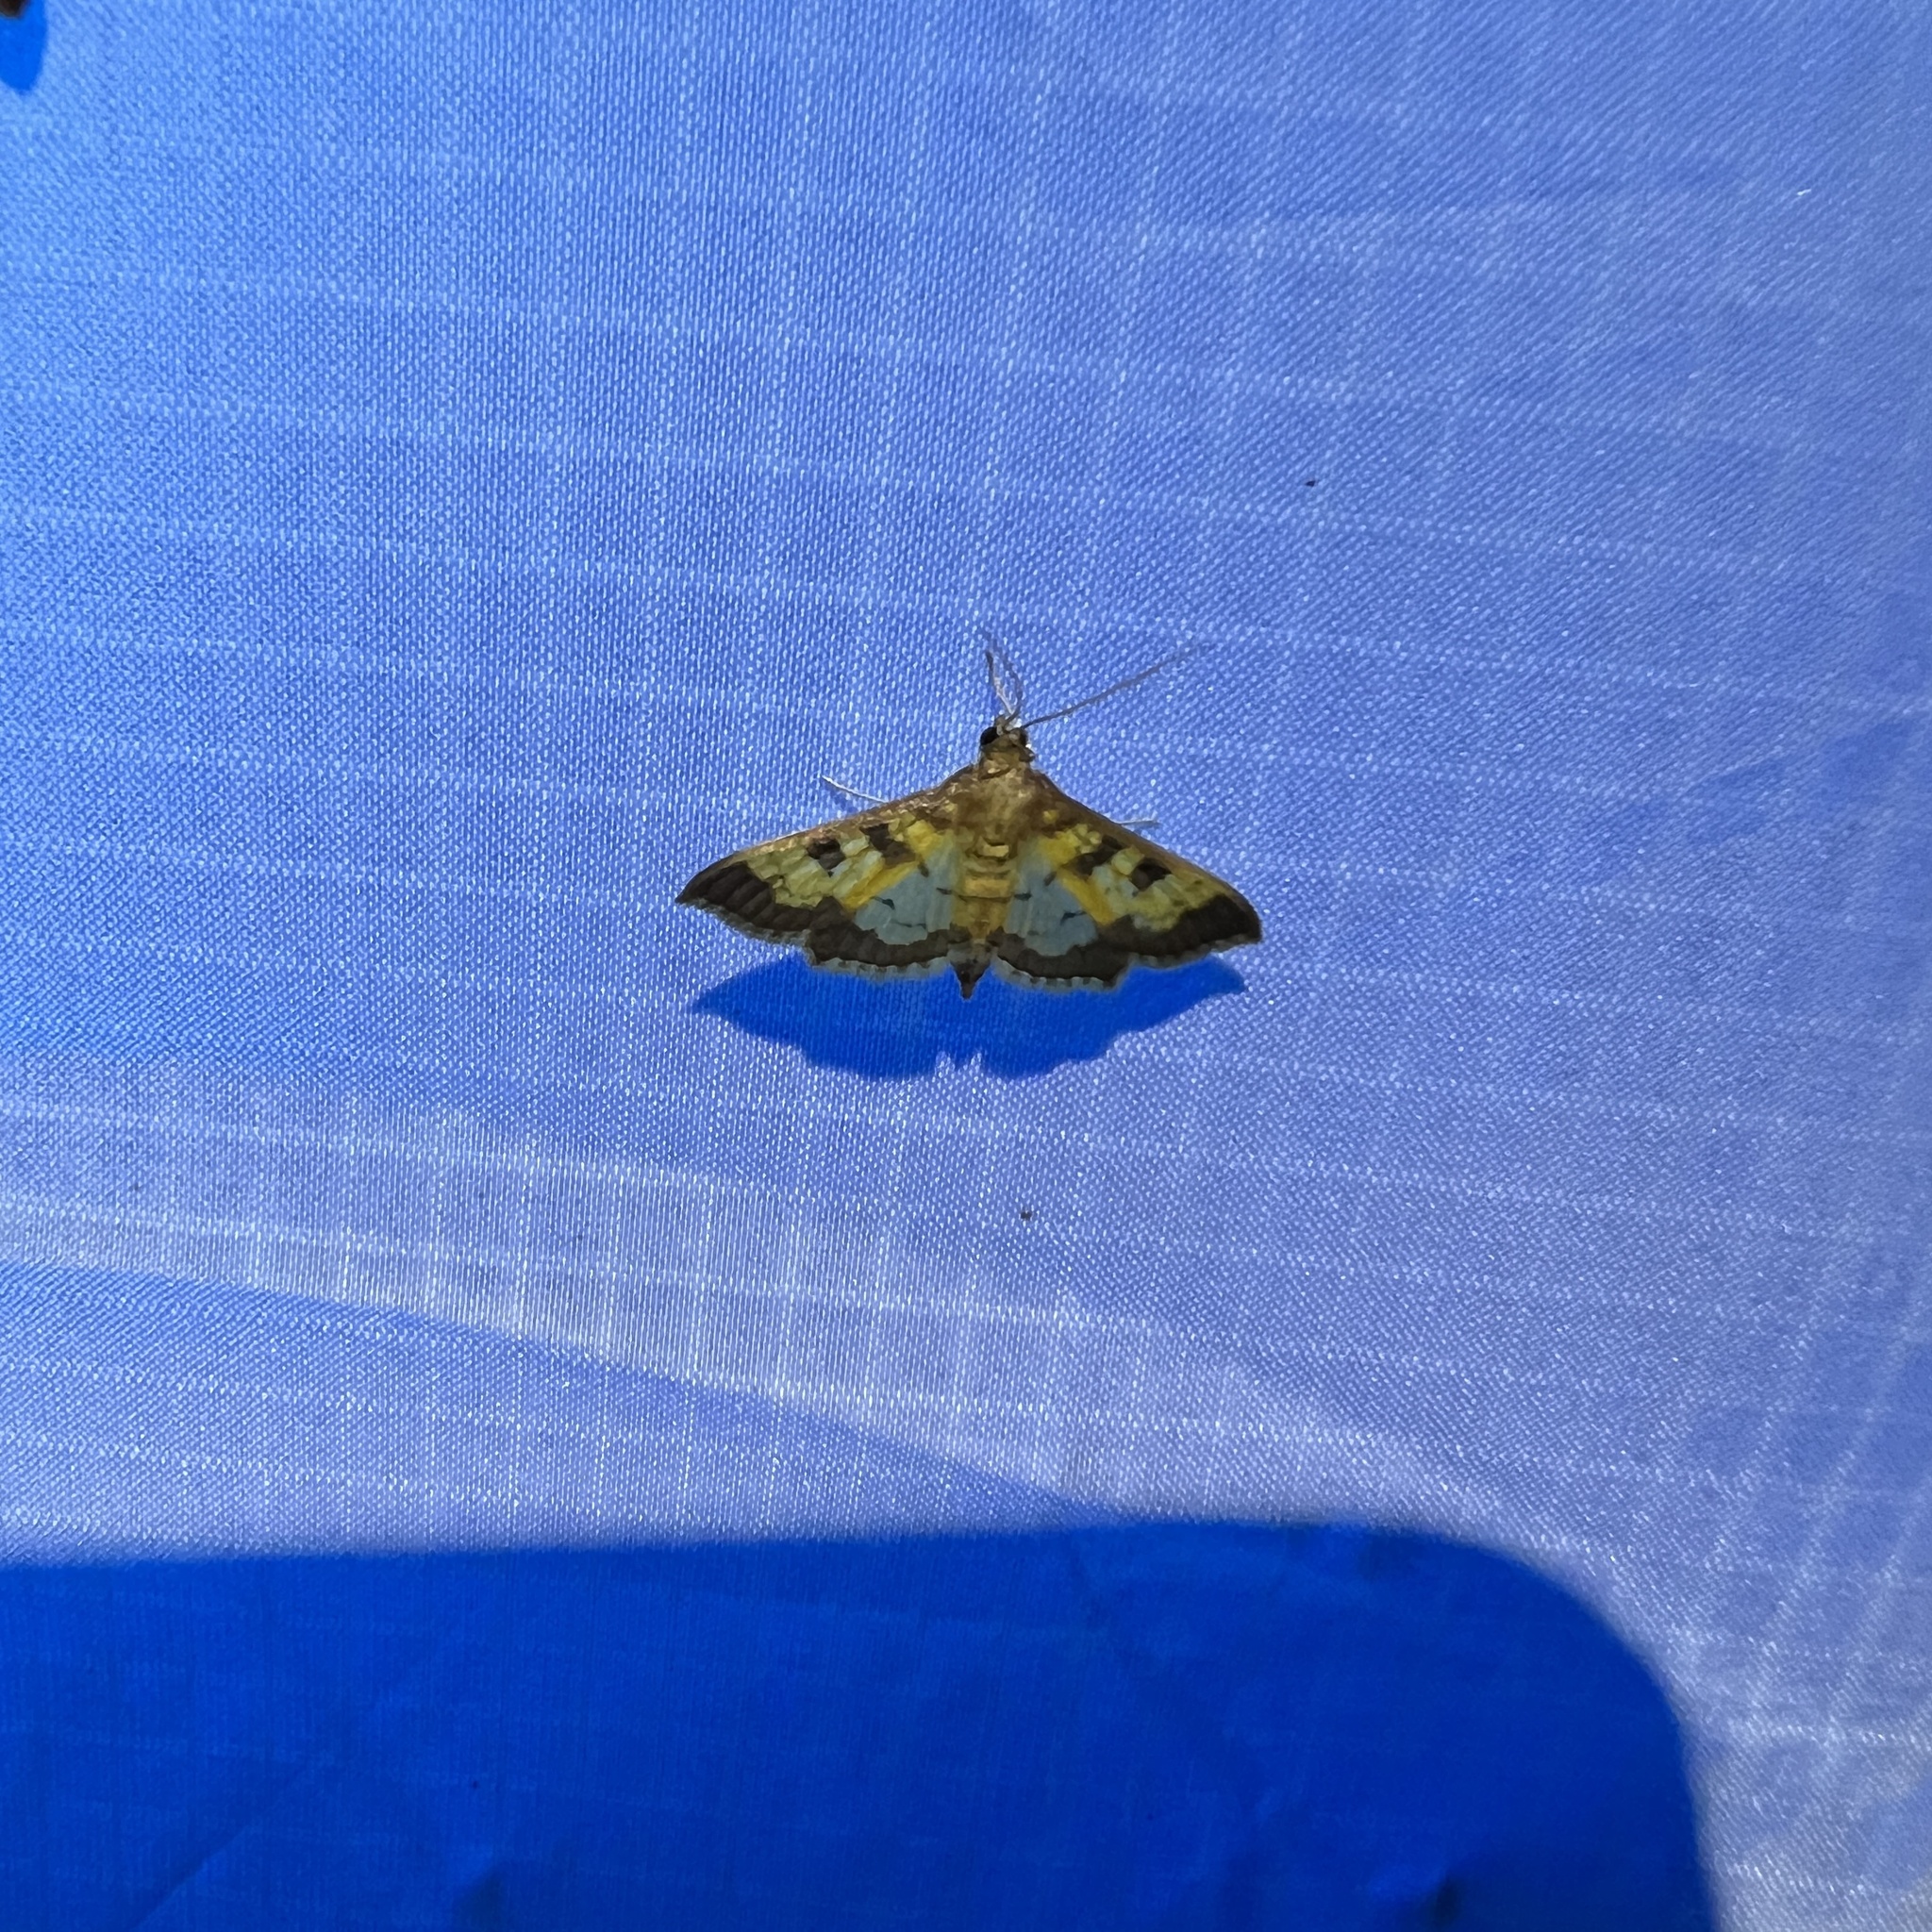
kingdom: Animalia
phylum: Arthropoda
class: Insecta
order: Lepidoptera
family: Crambidae
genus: Cryptographis
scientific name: Cryptographis elealis
